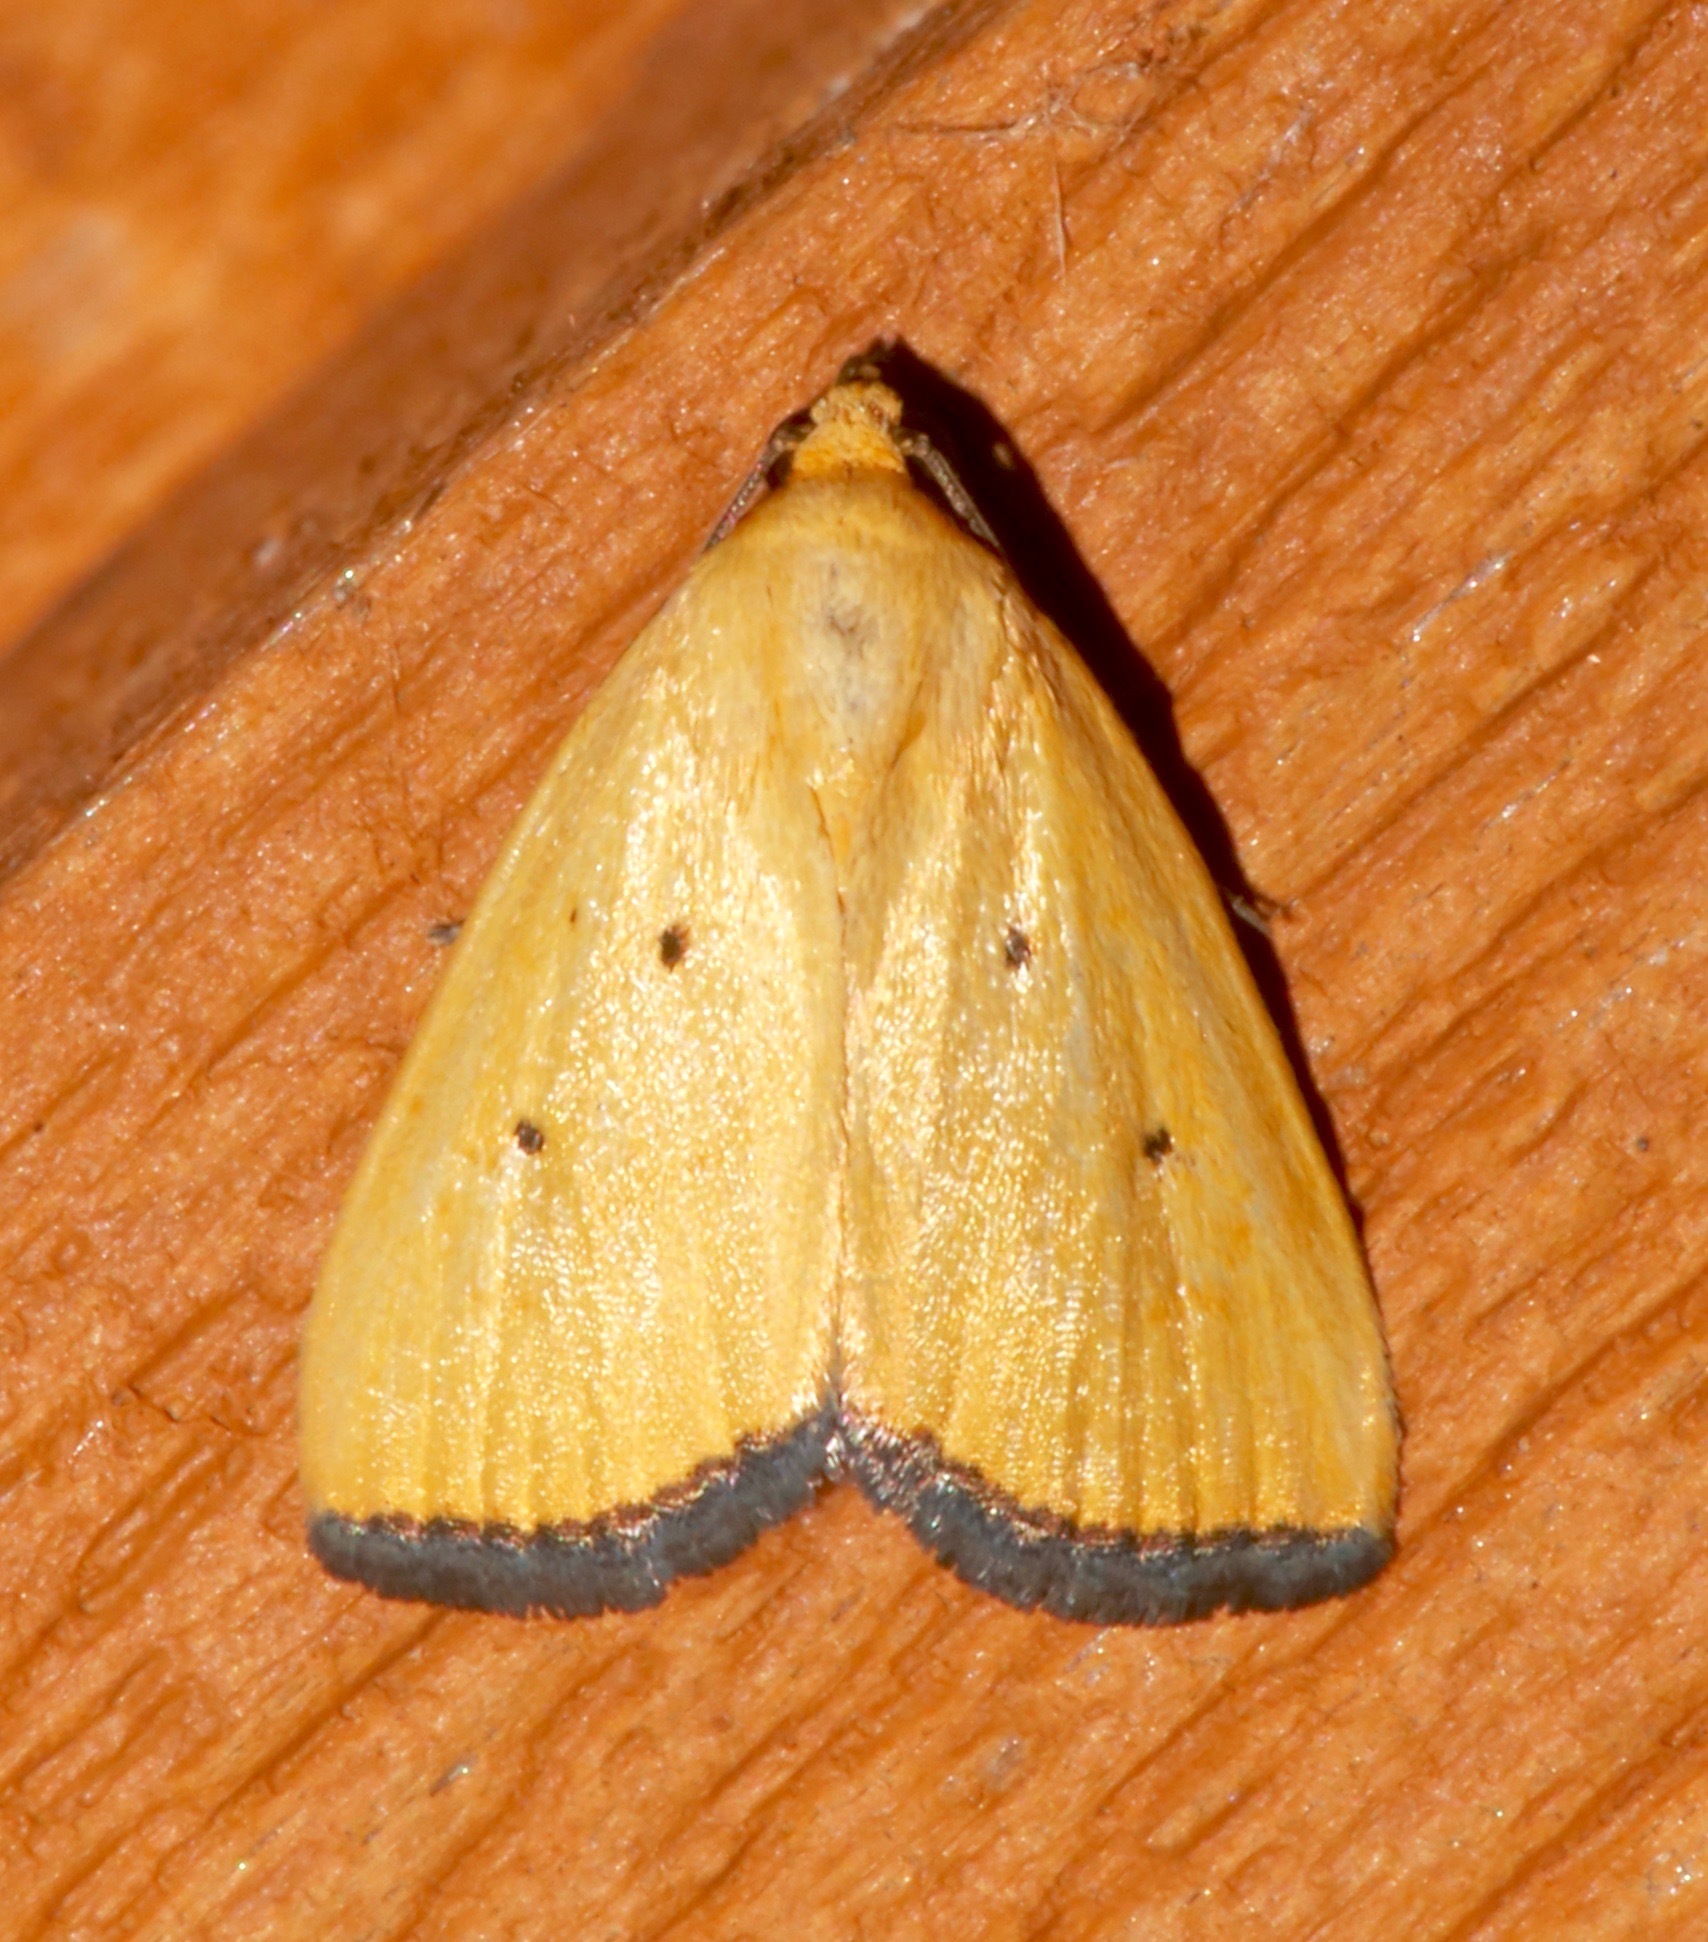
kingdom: Animalia
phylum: Arthropoda
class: Insecta
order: Lepidoptera
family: Noctuidae
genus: Marimatha
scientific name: Marimatha nigrofimbria
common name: Black-bordered lemon moth
